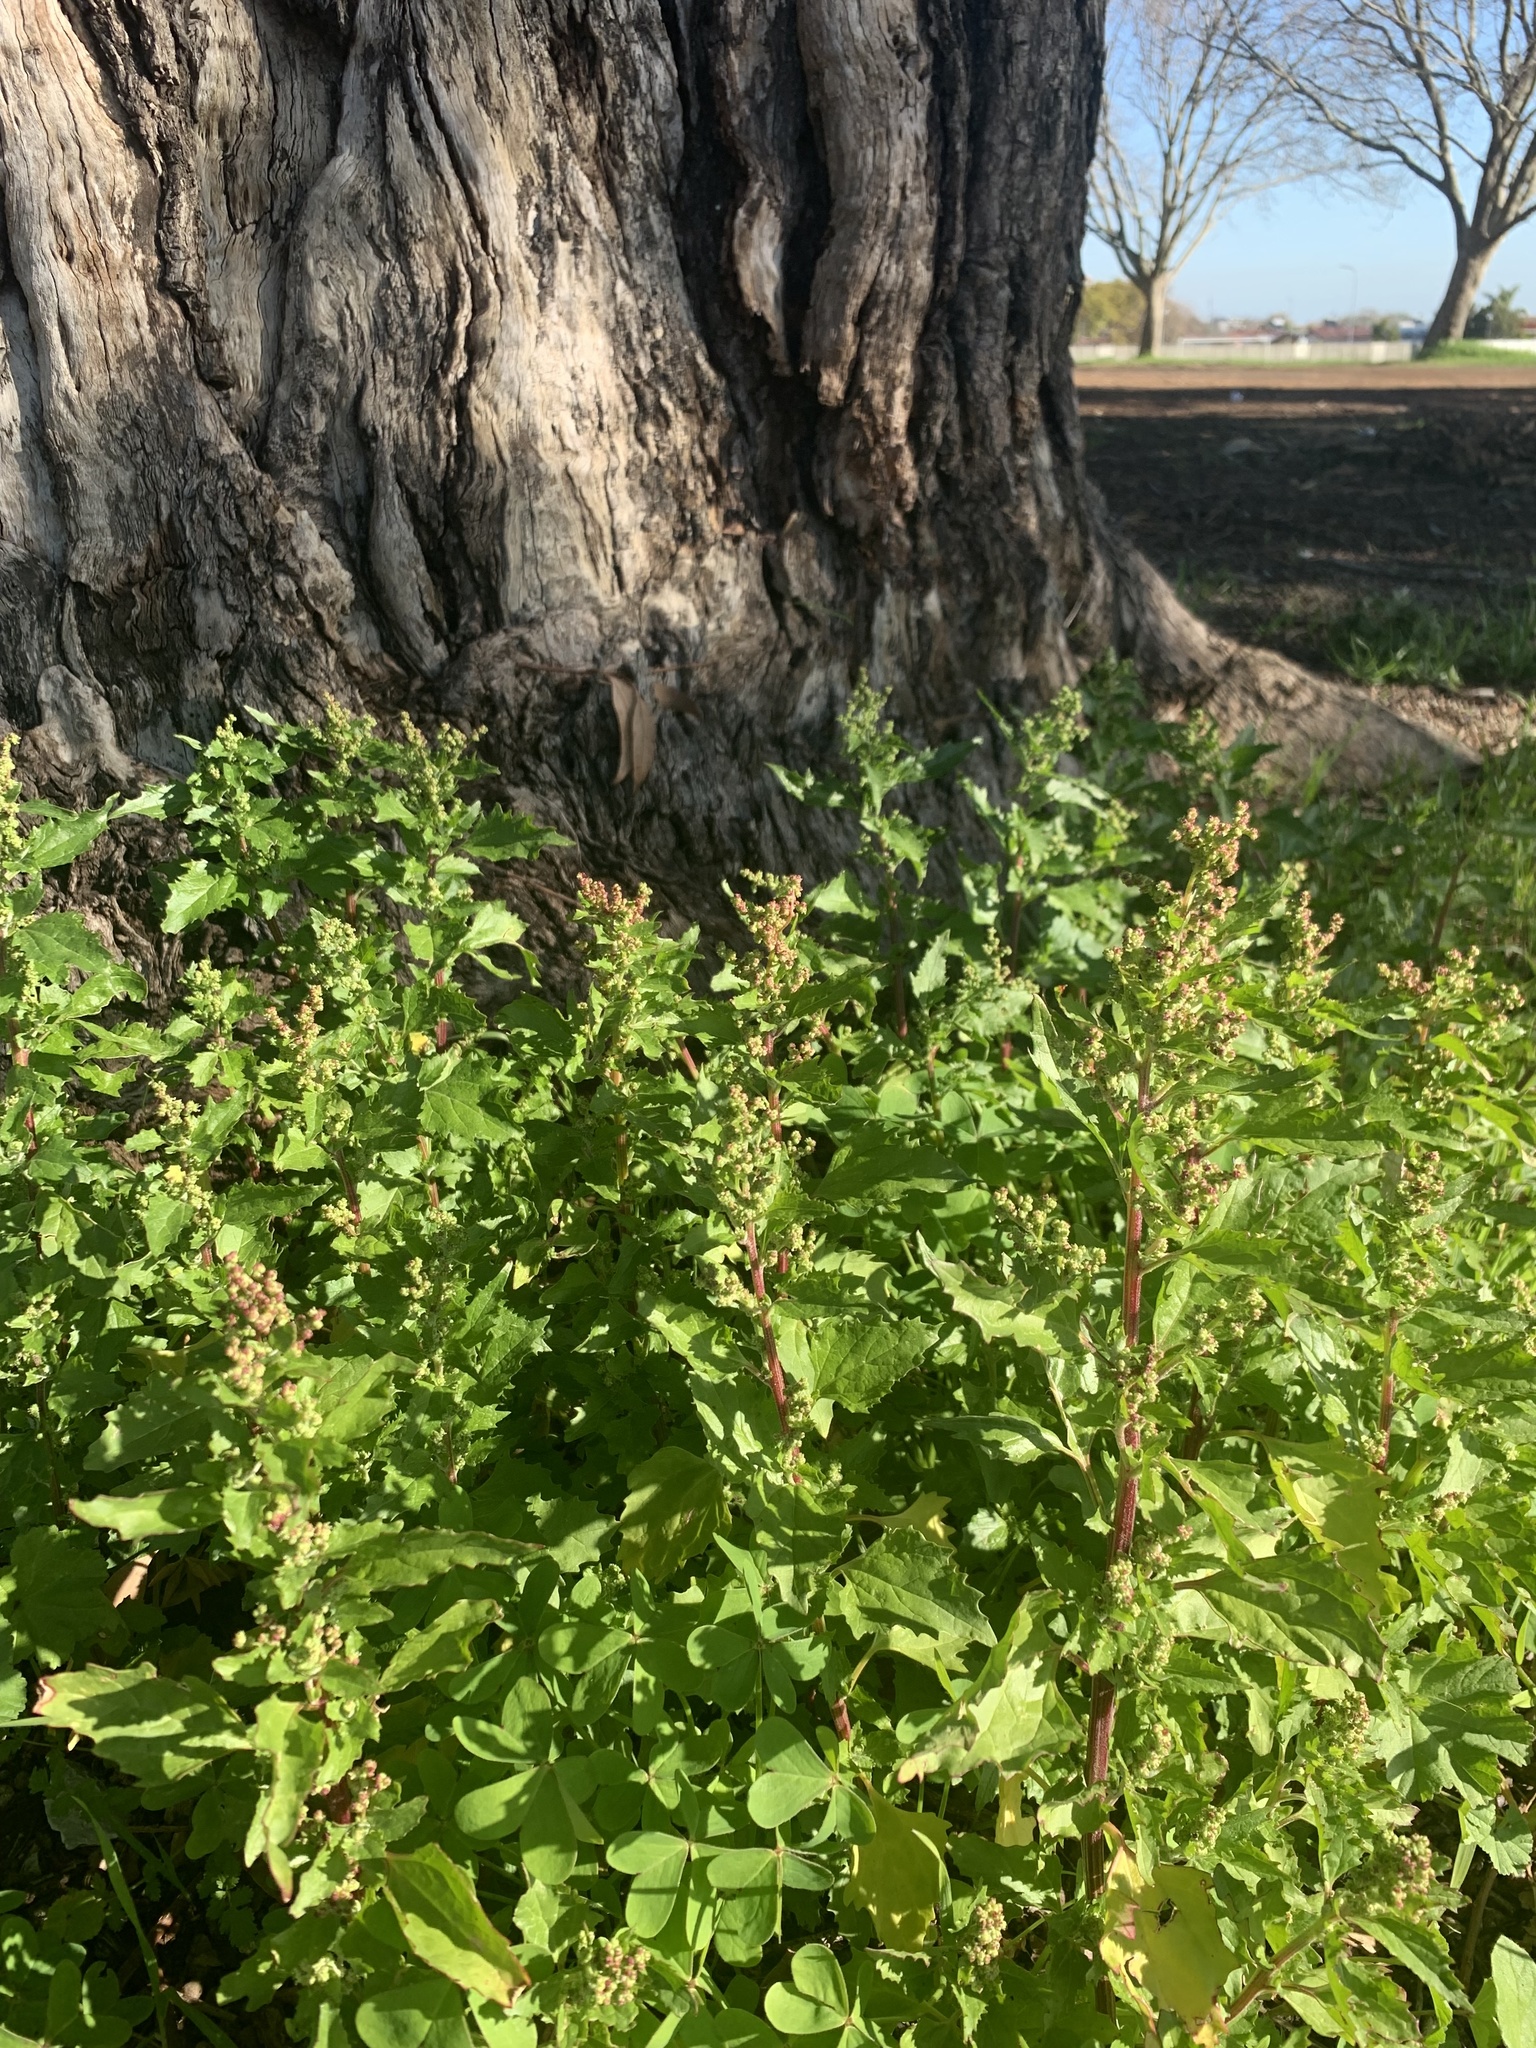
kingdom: Plantae
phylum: Tracheophyta
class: Magnoliopsida
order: Caryophyllales
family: Amaranthaceae
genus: Chenopodiastrum
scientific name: Chenopodiastrum murale
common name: Sowbane
